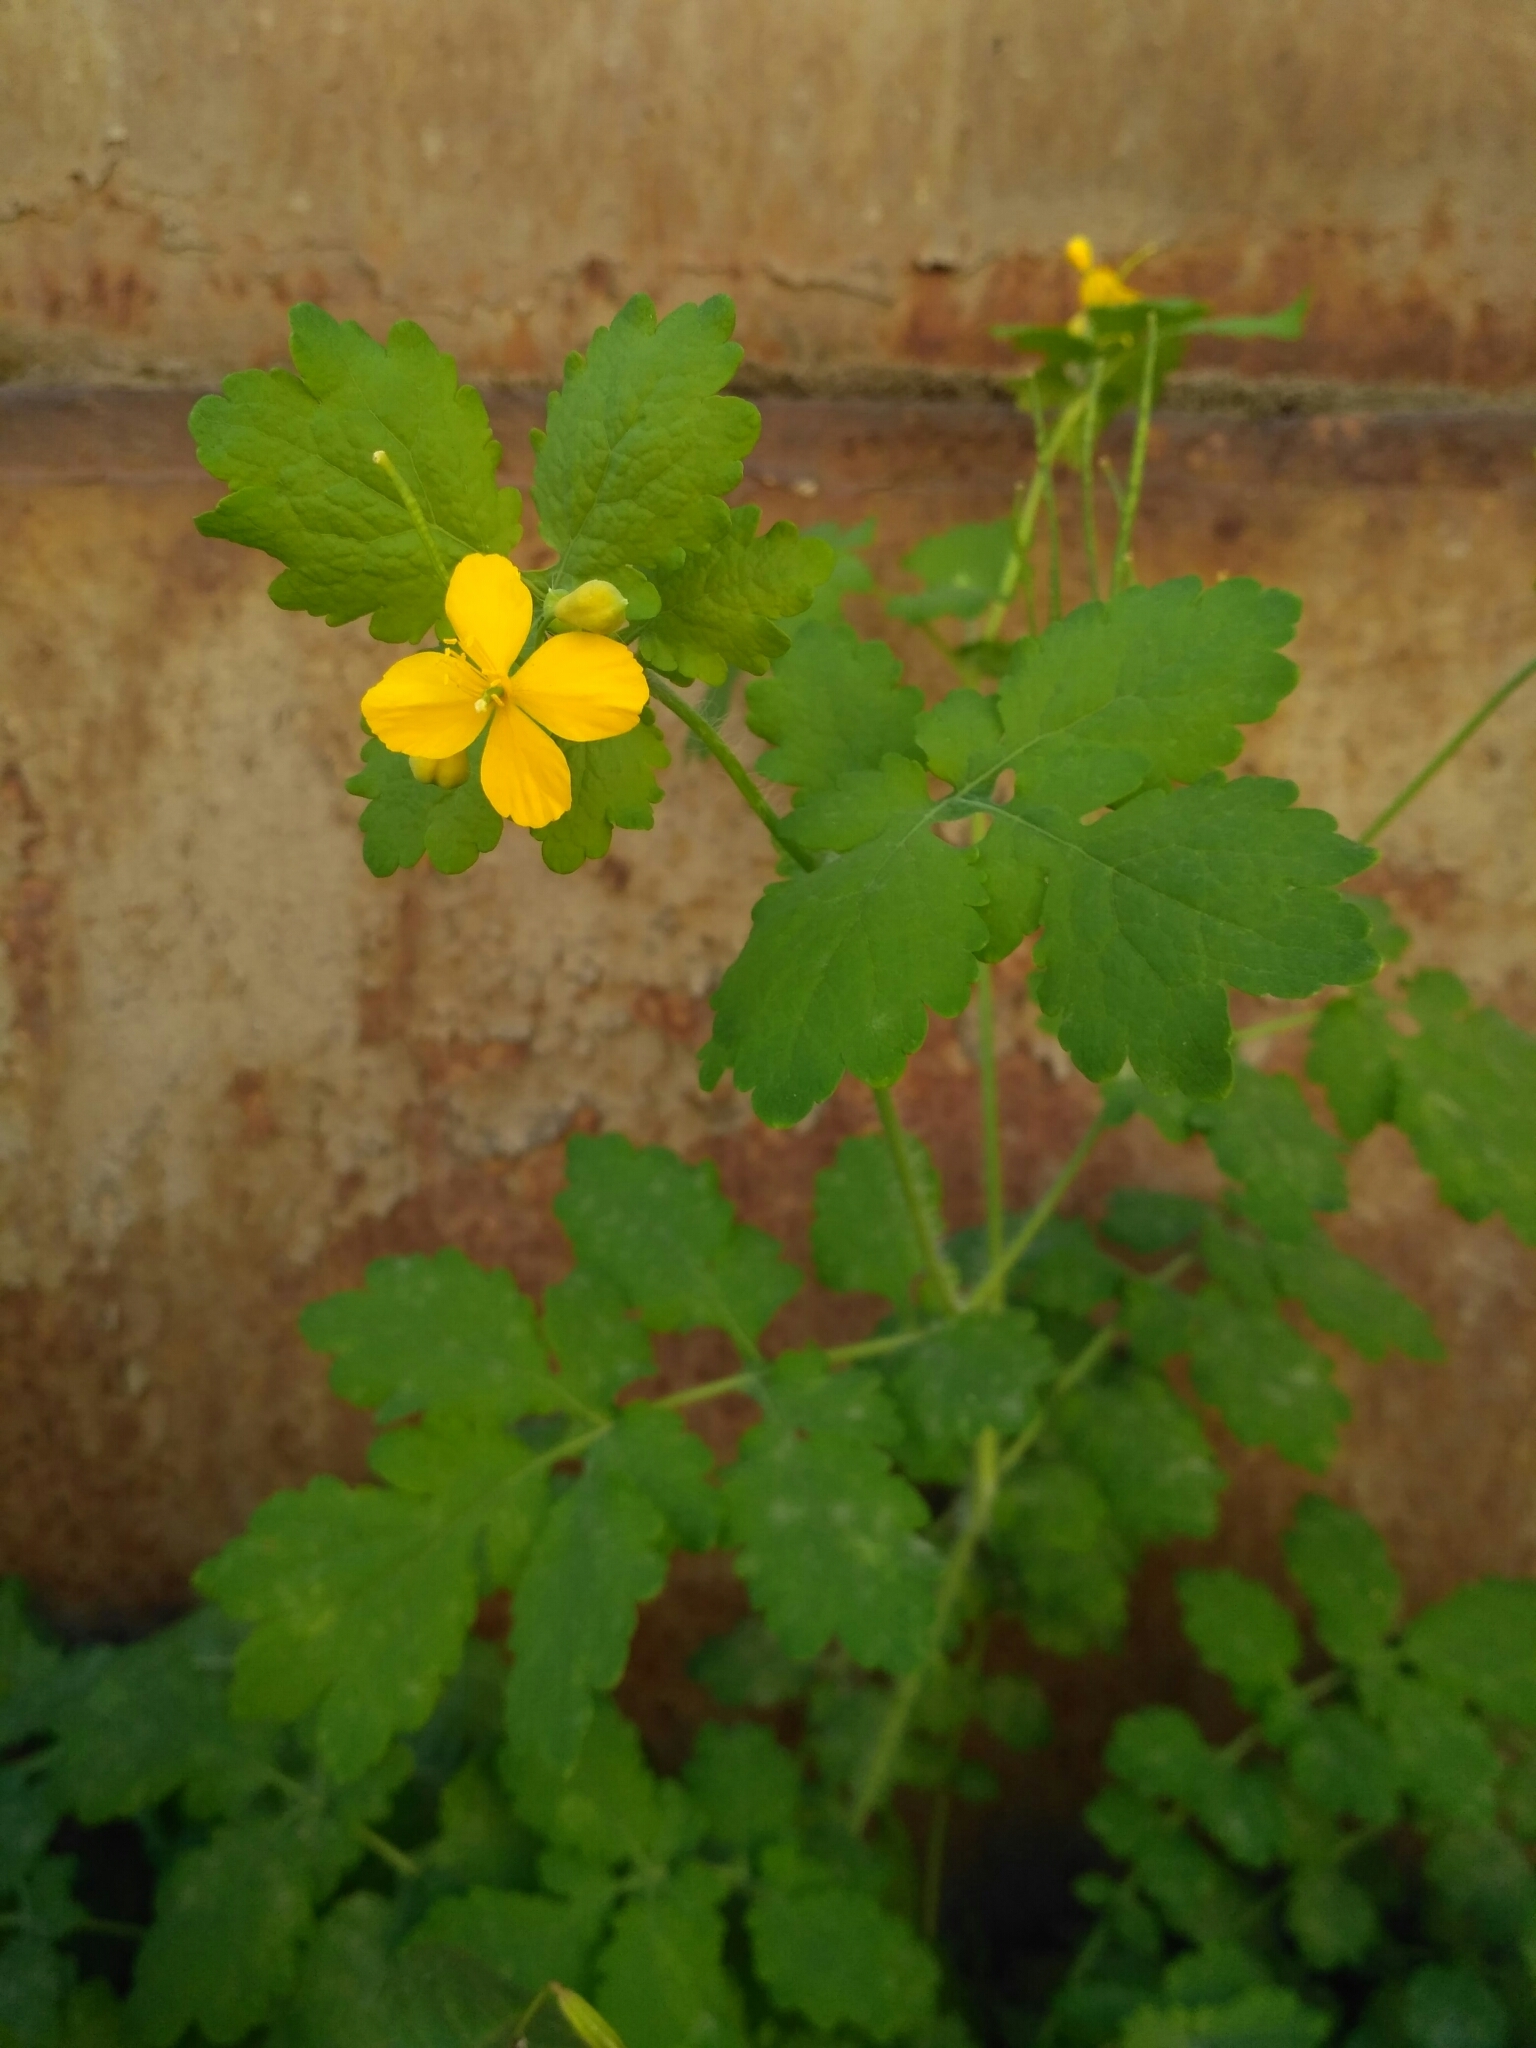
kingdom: Plantae
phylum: Tracheophyta
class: Magnoliopsida
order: Ranunculales
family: Papaveraceae
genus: Chelidonium
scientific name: Chelidonium majus
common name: Greater celandine
